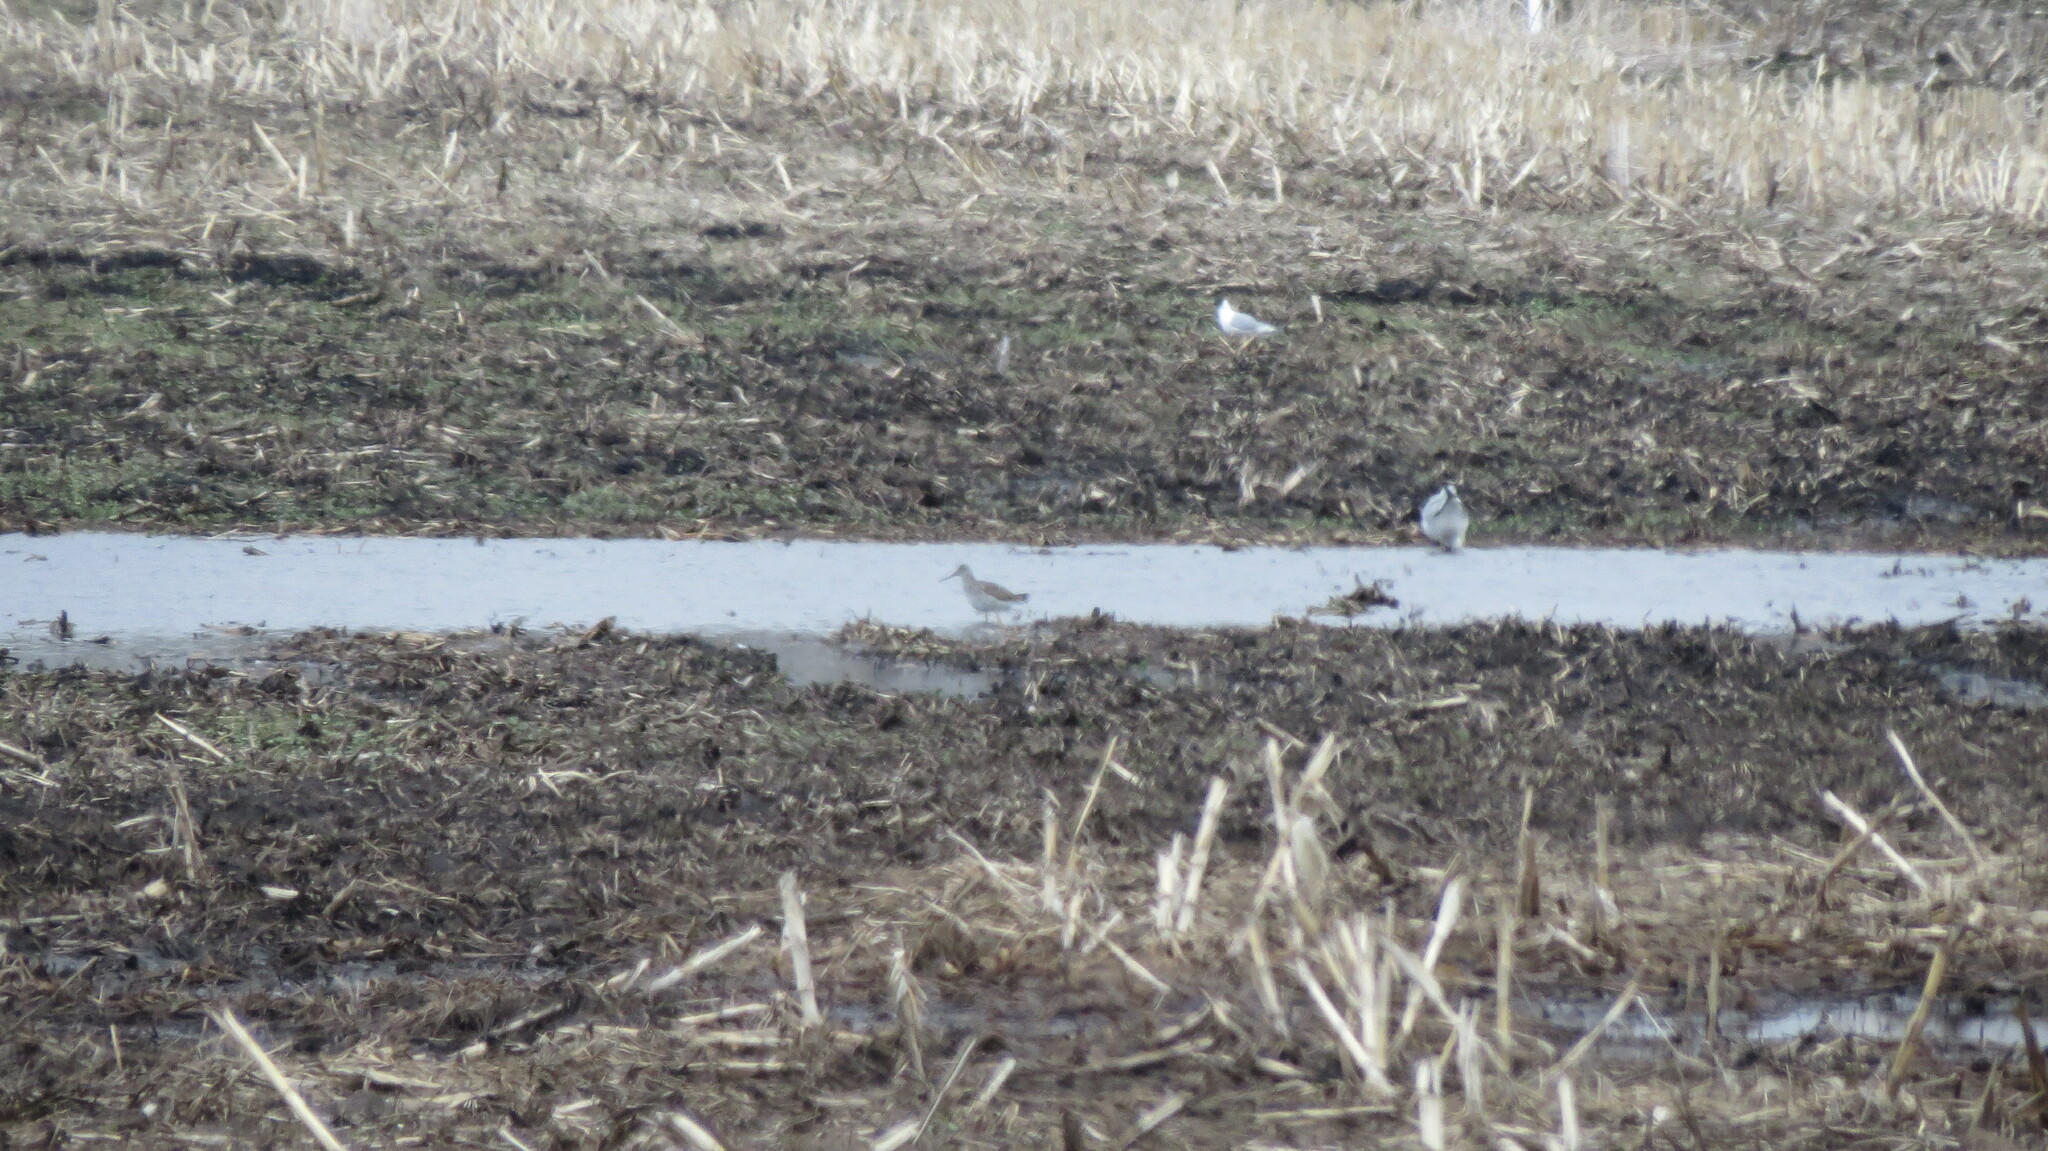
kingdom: Animalia
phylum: Chordata
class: Aves
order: Charadriiformes
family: Laridae
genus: Chroicocephalus
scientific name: Chroicocephalus philadelphia
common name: Bonaparte's gull
